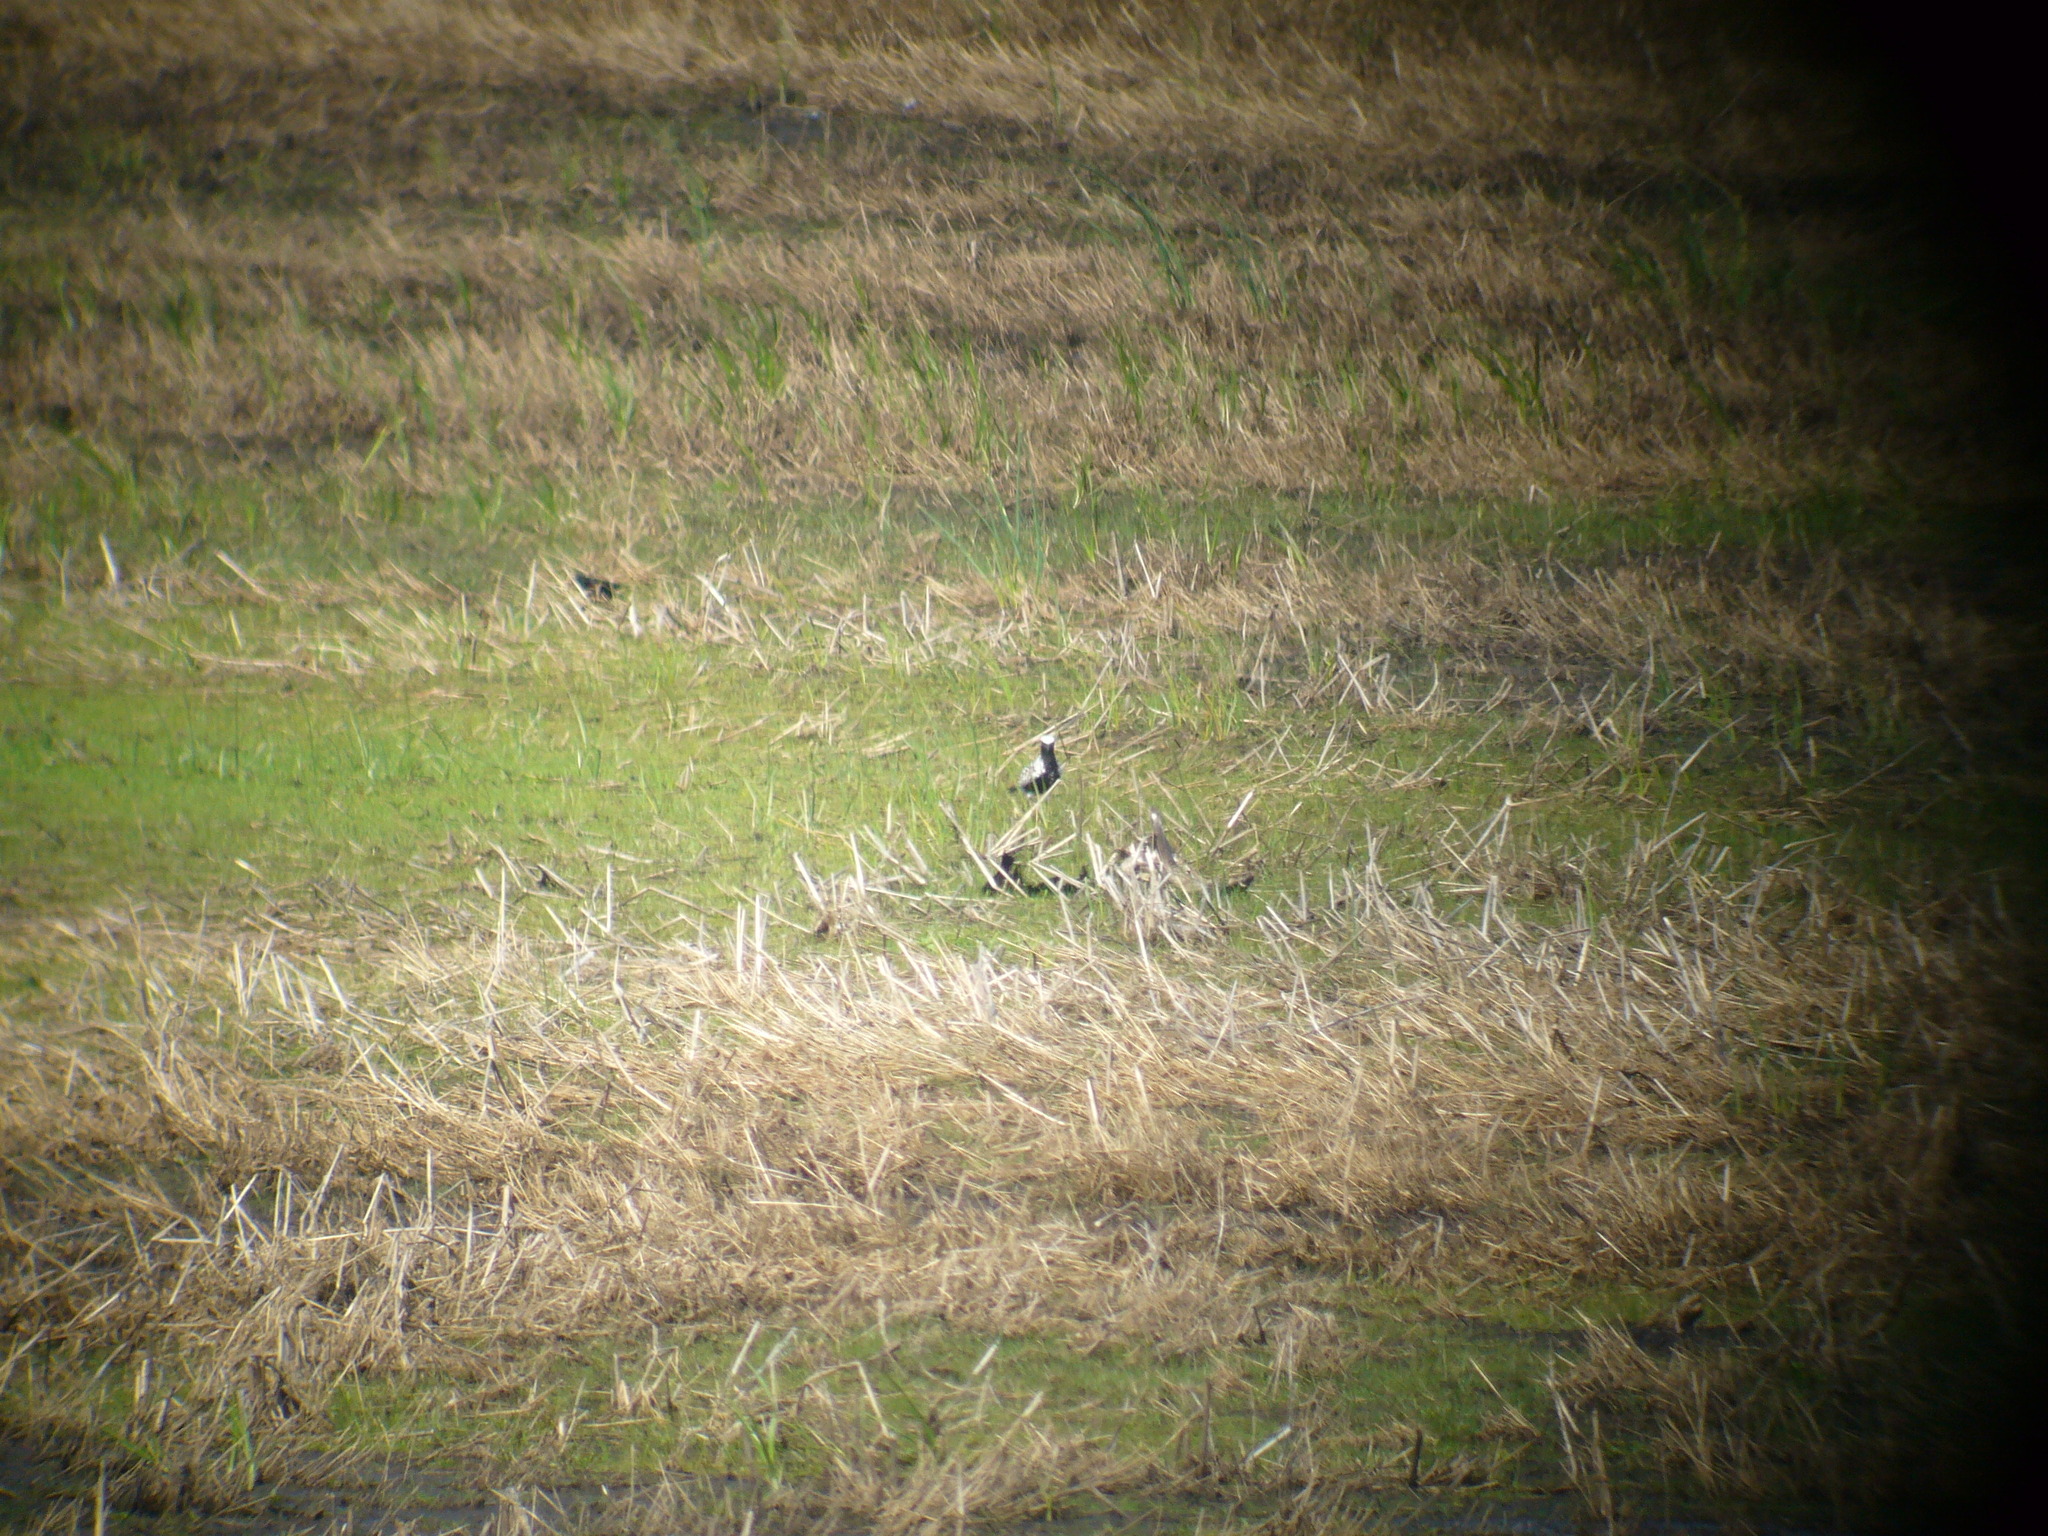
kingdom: Animalia
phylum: Chordata
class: Aves
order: Charadriiformes
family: Charadriidae
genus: Pluvialis
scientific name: Pluvialis squatarola
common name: Grey plover
